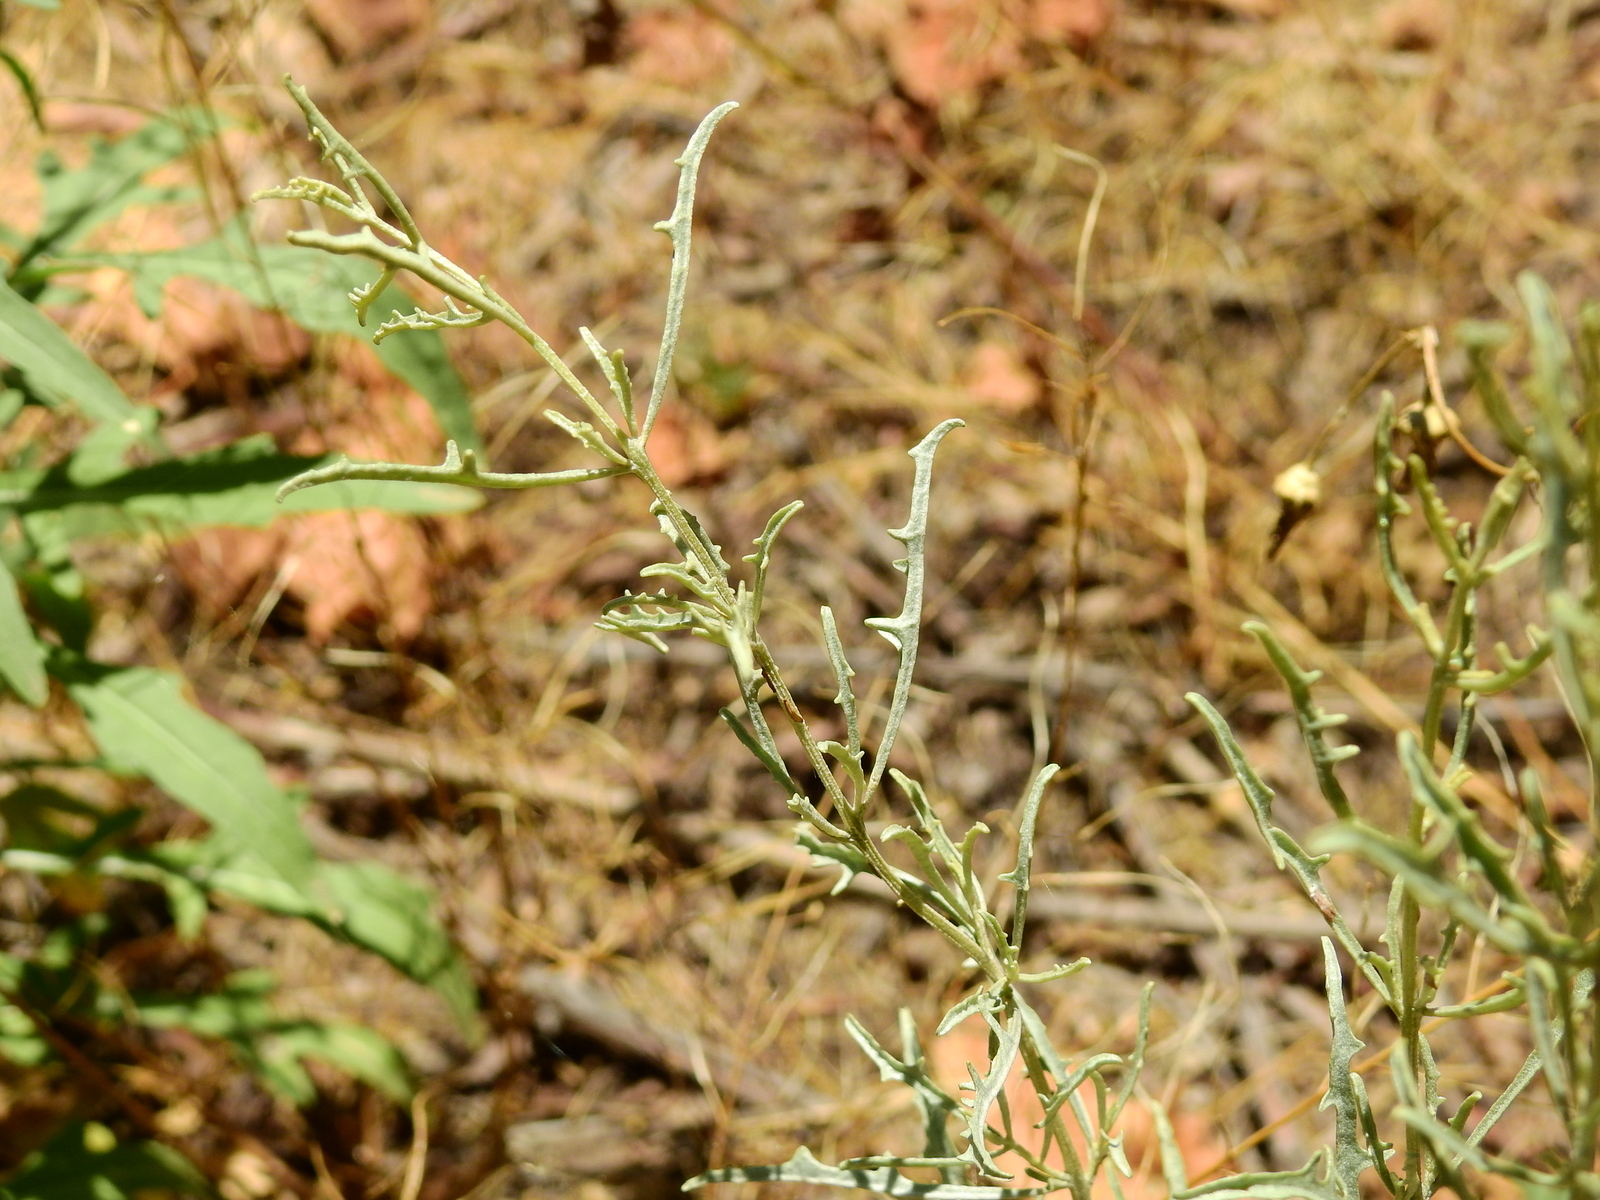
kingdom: Plantae
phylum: Tracheophyta
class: Magnoliopsida
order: Caryophyllales
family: Amaranthaceae
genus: Atriplex
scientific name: Atriplex lampa
